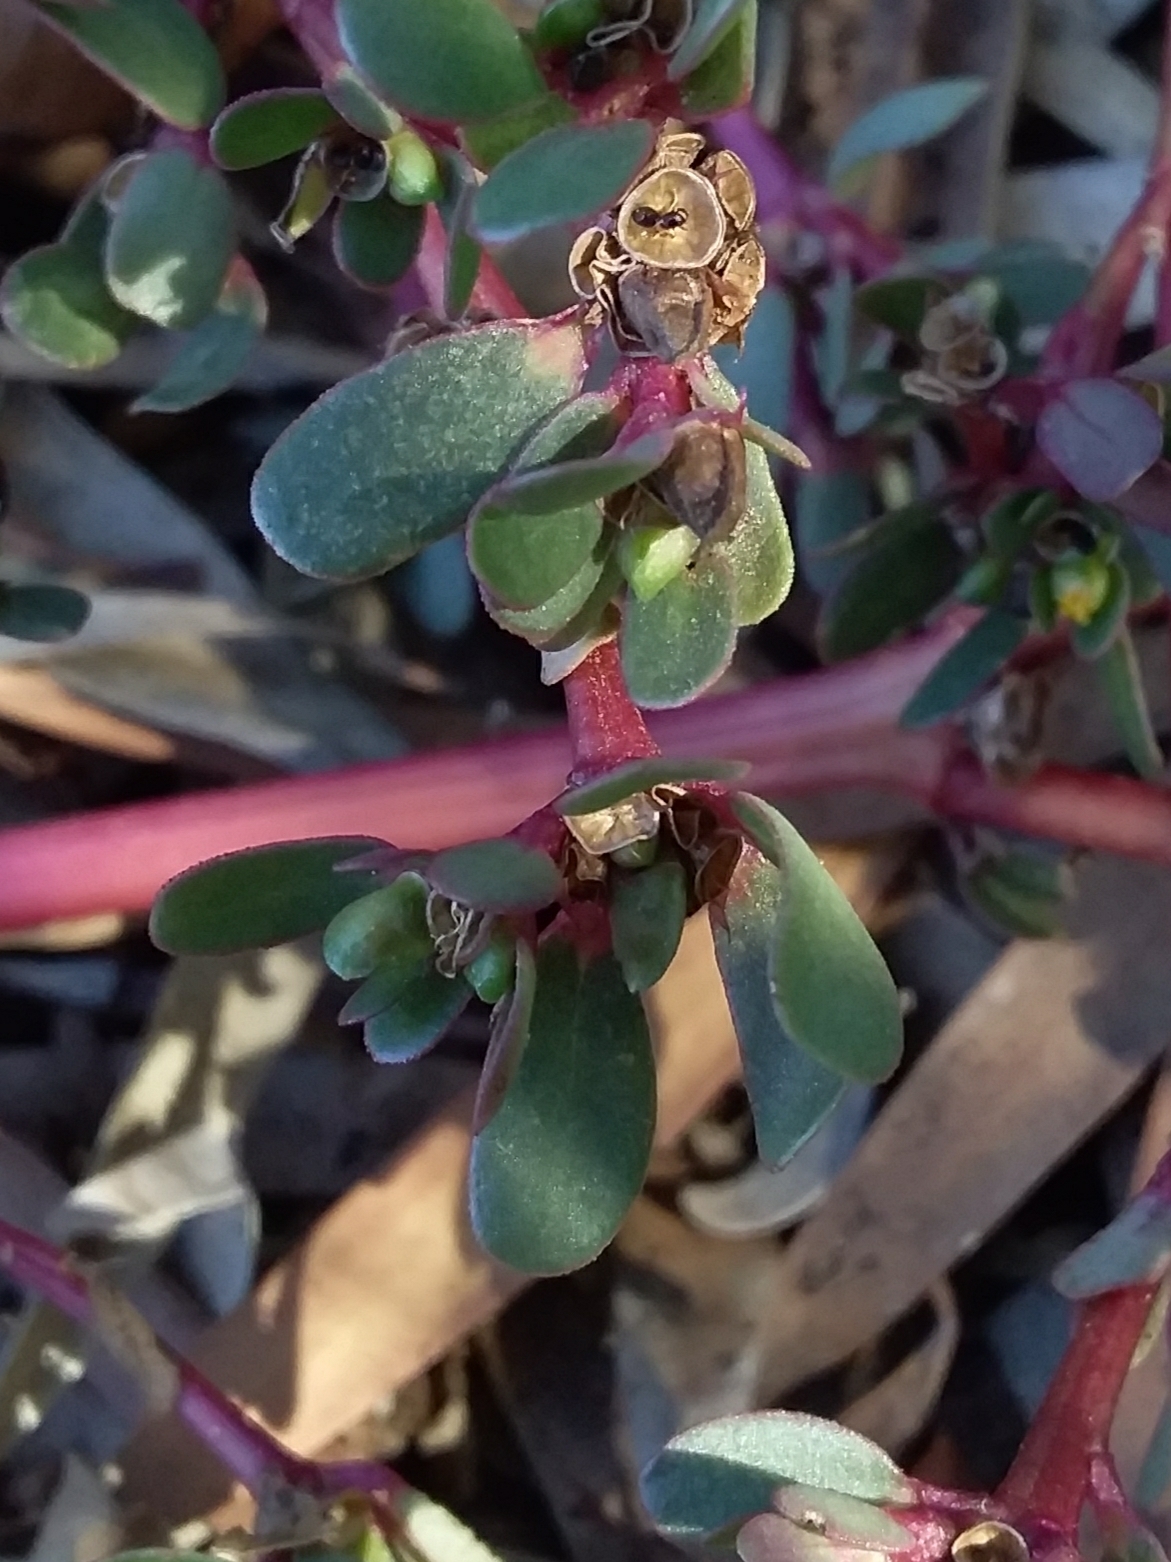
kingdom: Plantae
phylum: Tracheophyta
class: Magnoliopsida
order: Caryophyllales
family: Portulacaceae
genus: Portulaca
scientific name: Portulaca oleracea
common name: Common purslane
